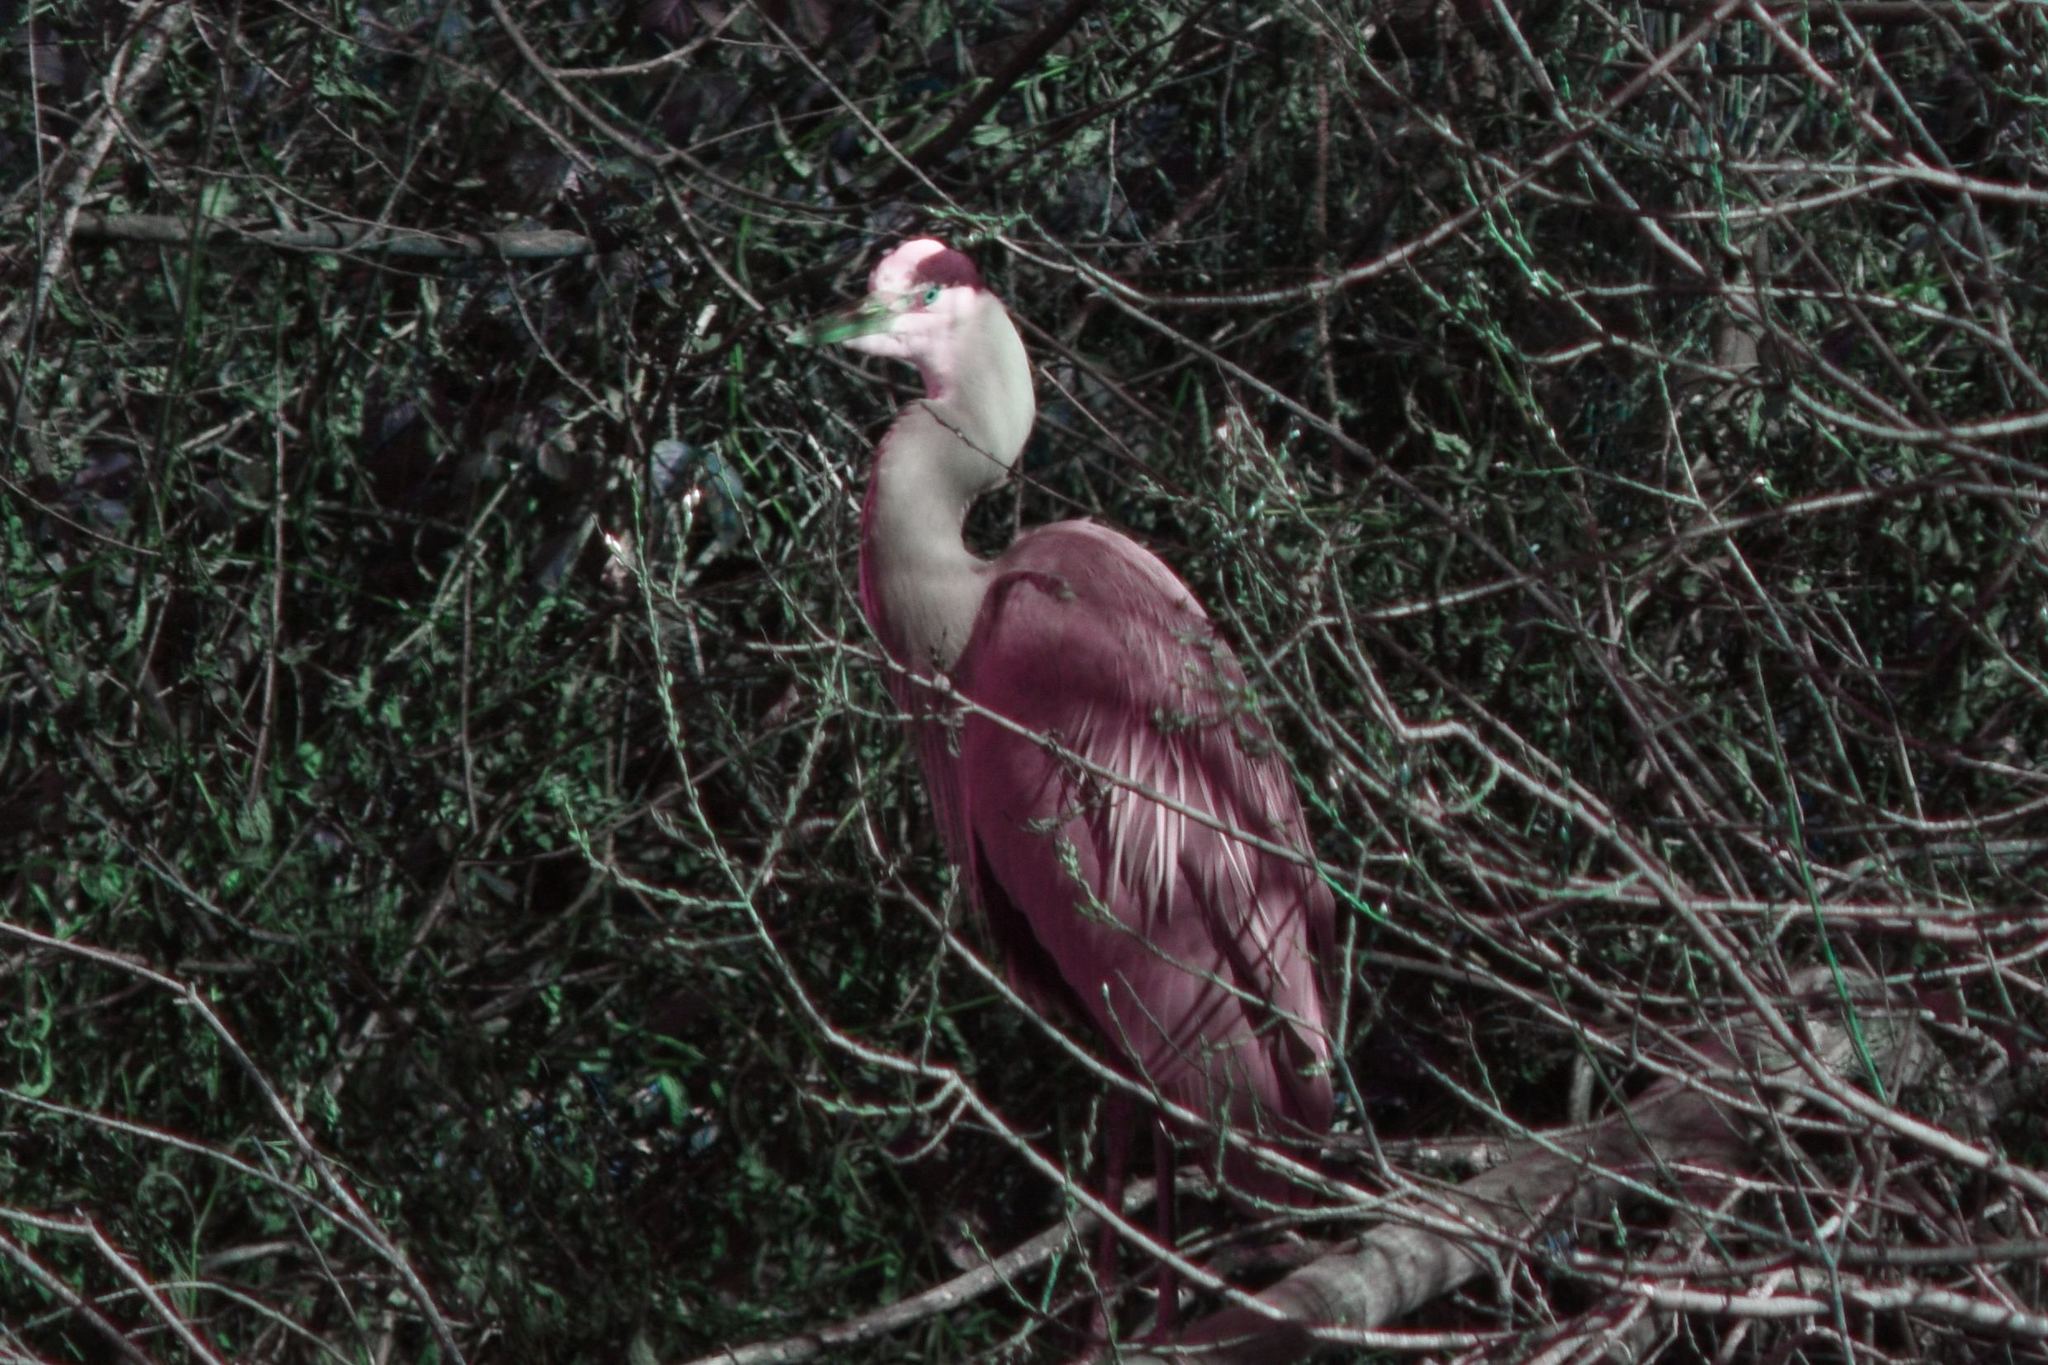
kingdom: Animalia
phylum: Chordata
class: Aves
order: Pelecaniformes
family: Ardeidae
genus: Ardea
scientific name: Ardea herodias
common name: Great blue heron
